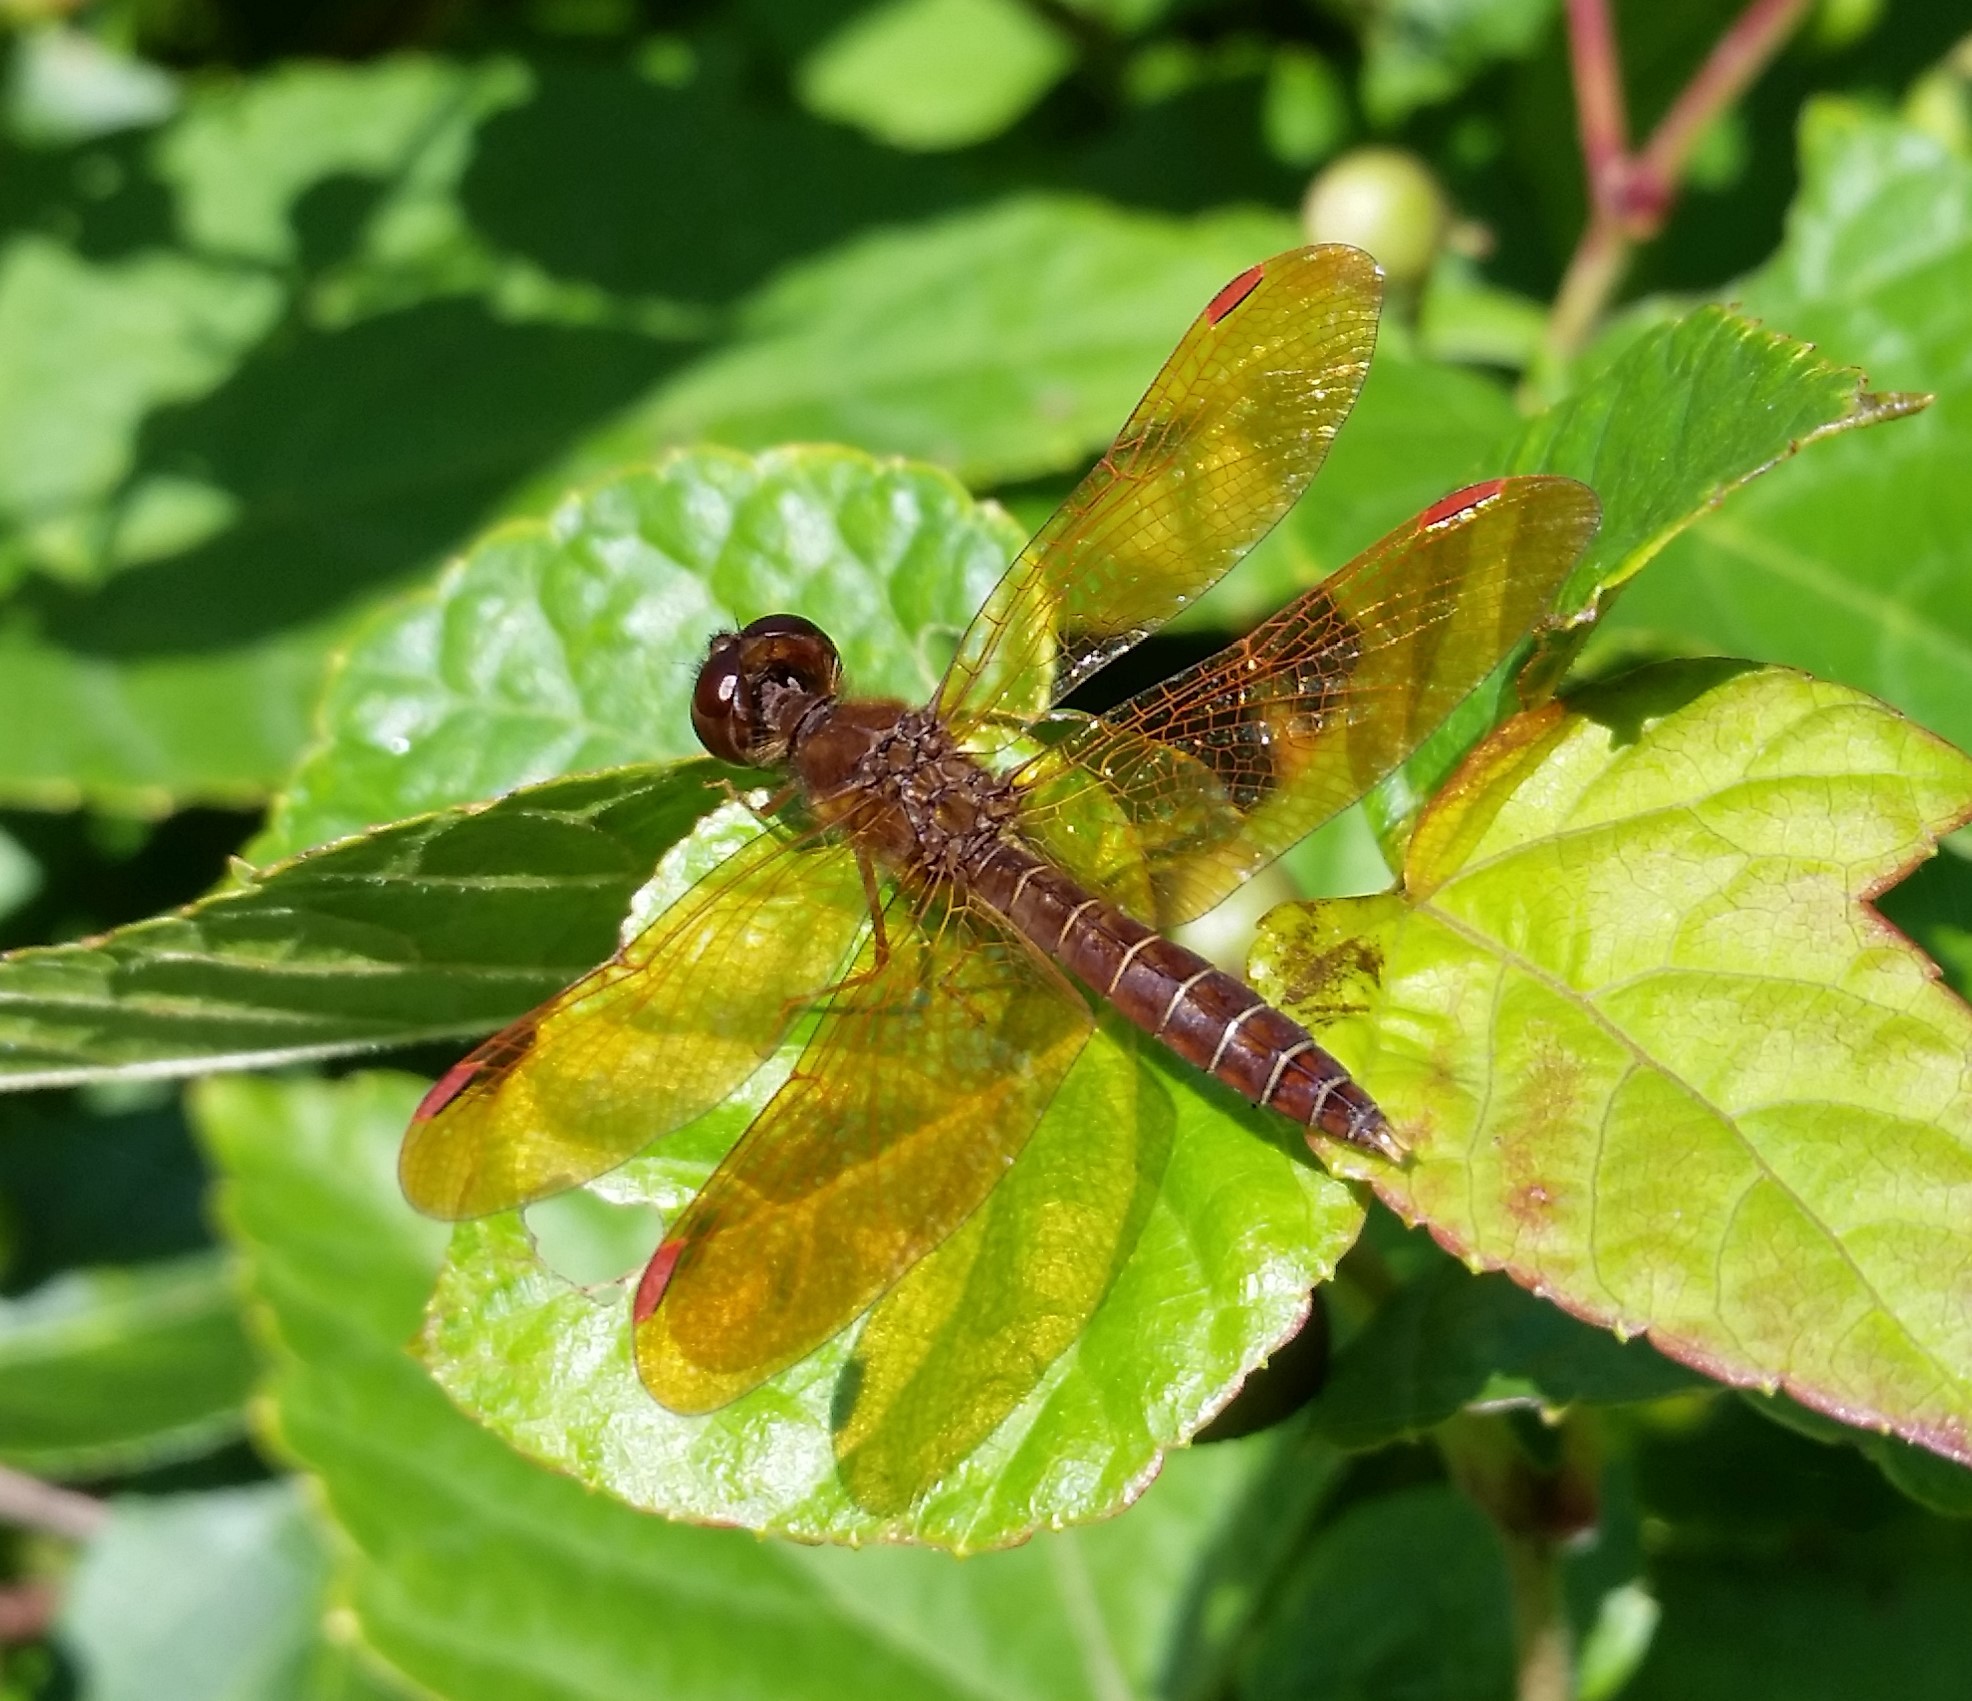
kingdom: Animalia
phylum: Arthropoda
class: Insecta
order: Odonata
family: Libellulidae
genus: Perithemis
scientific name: Perithemis tenera
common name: Eastern amberwing
